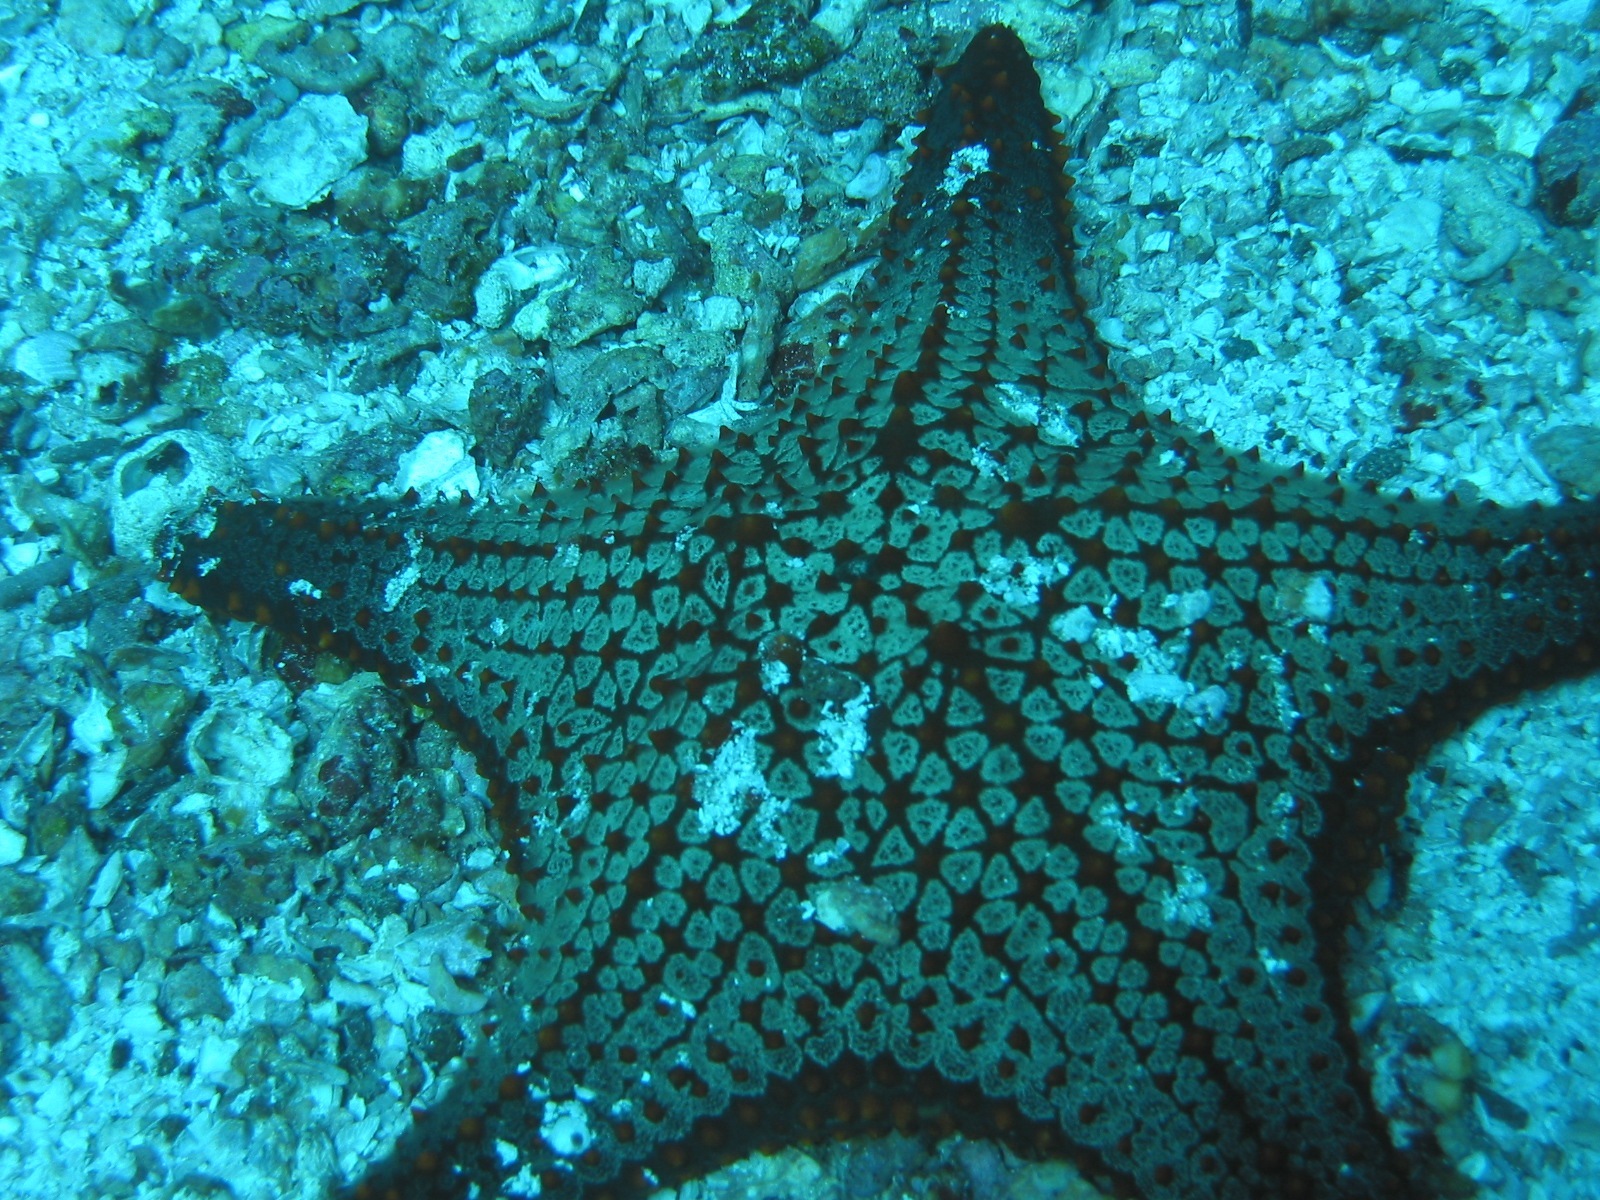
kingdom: Animalia
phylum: Echinodermata
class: Asteroidea
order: Valvatida
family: Oreasteridae
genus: Pentaceraster
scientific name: Pentaceraster cumingi
